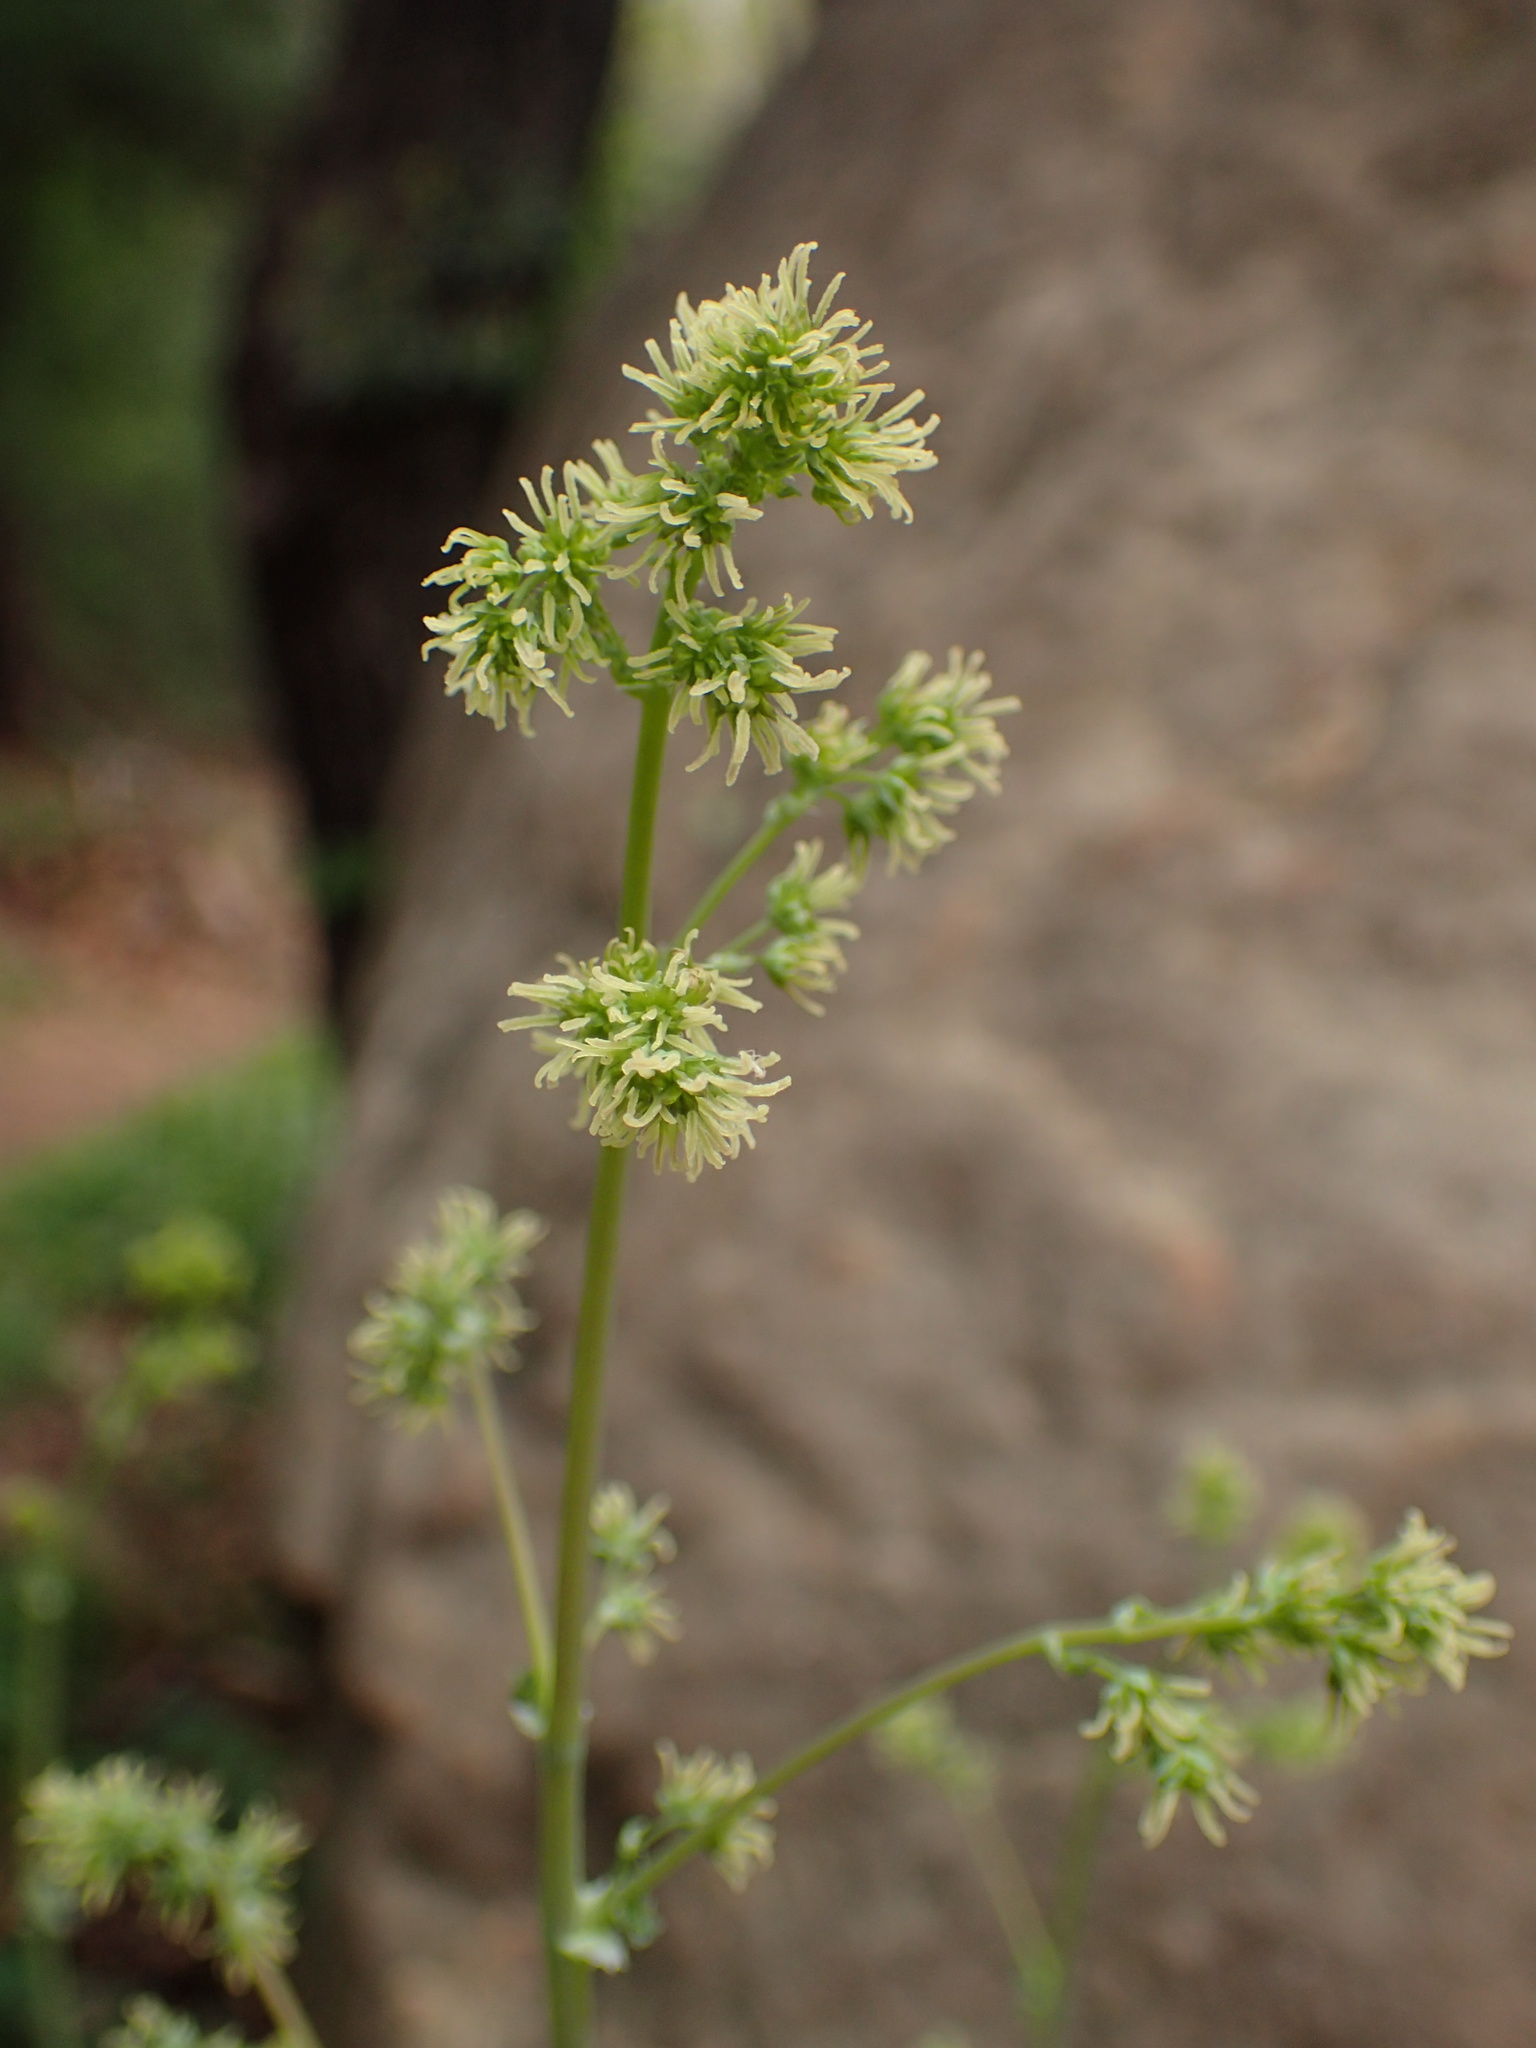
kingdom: Plantae
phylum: Tracheophyta
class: Magnoliopsida
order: Ranunculales
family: Ranunculaceae
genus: Thalictrum
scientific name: Thalictrum fendleri
